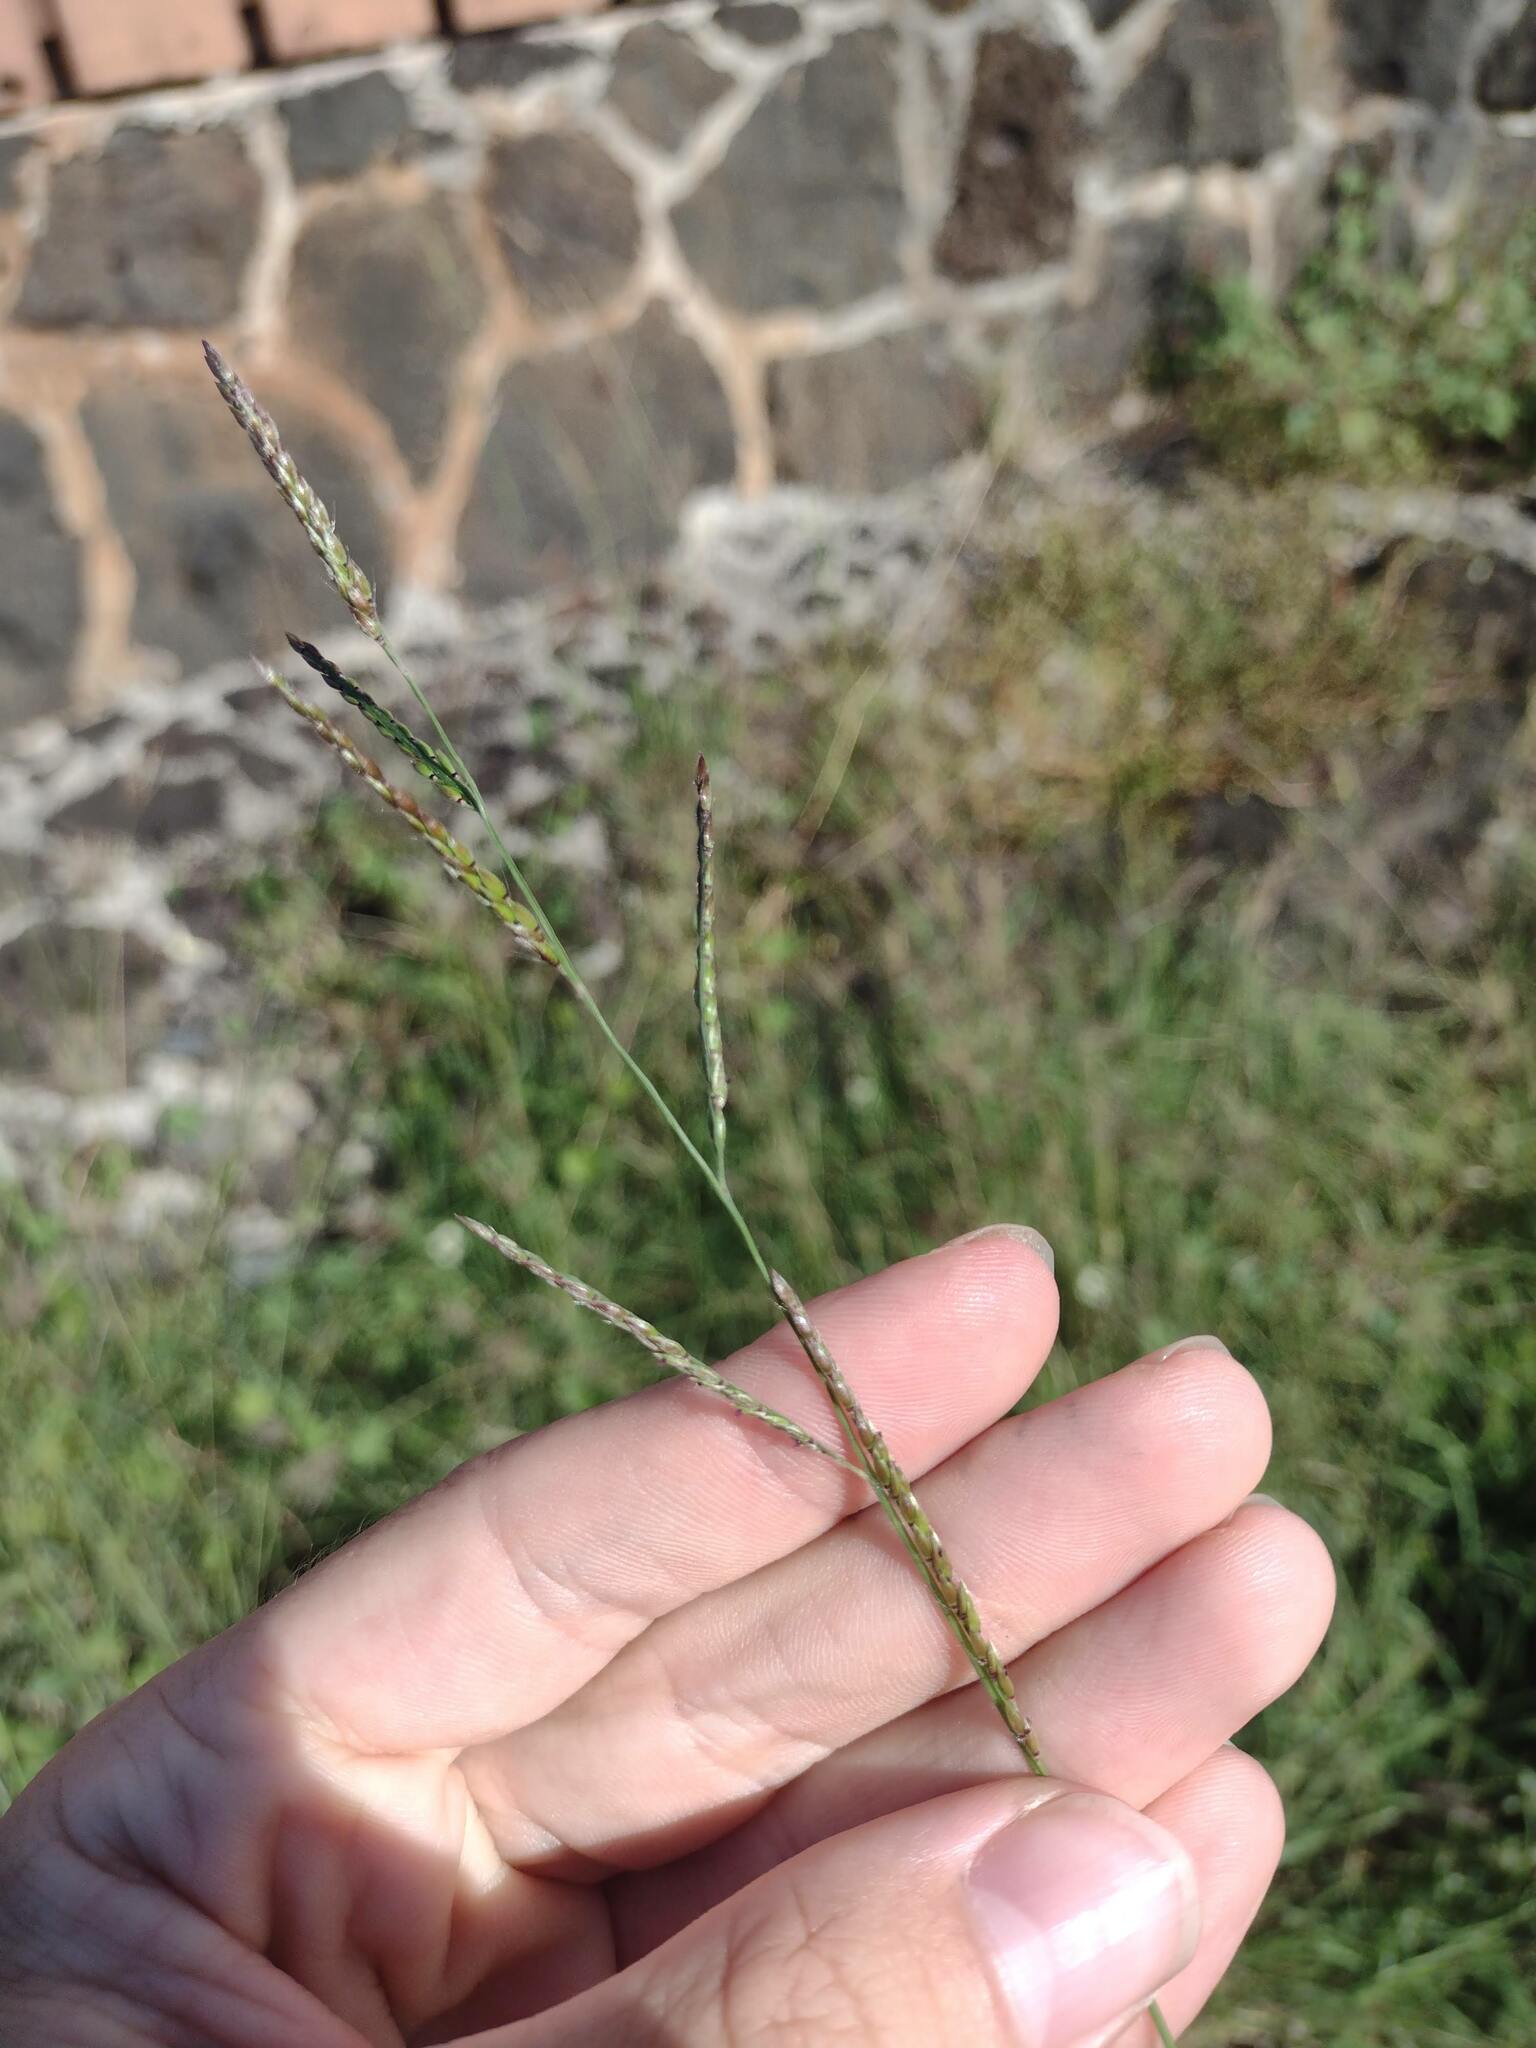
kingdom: Plantae
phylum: Tracheophyta
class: Liliopsida
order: Poales
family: Poaceae
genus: Eriochloa
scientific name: Eriochloa procera
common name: Spring grass
